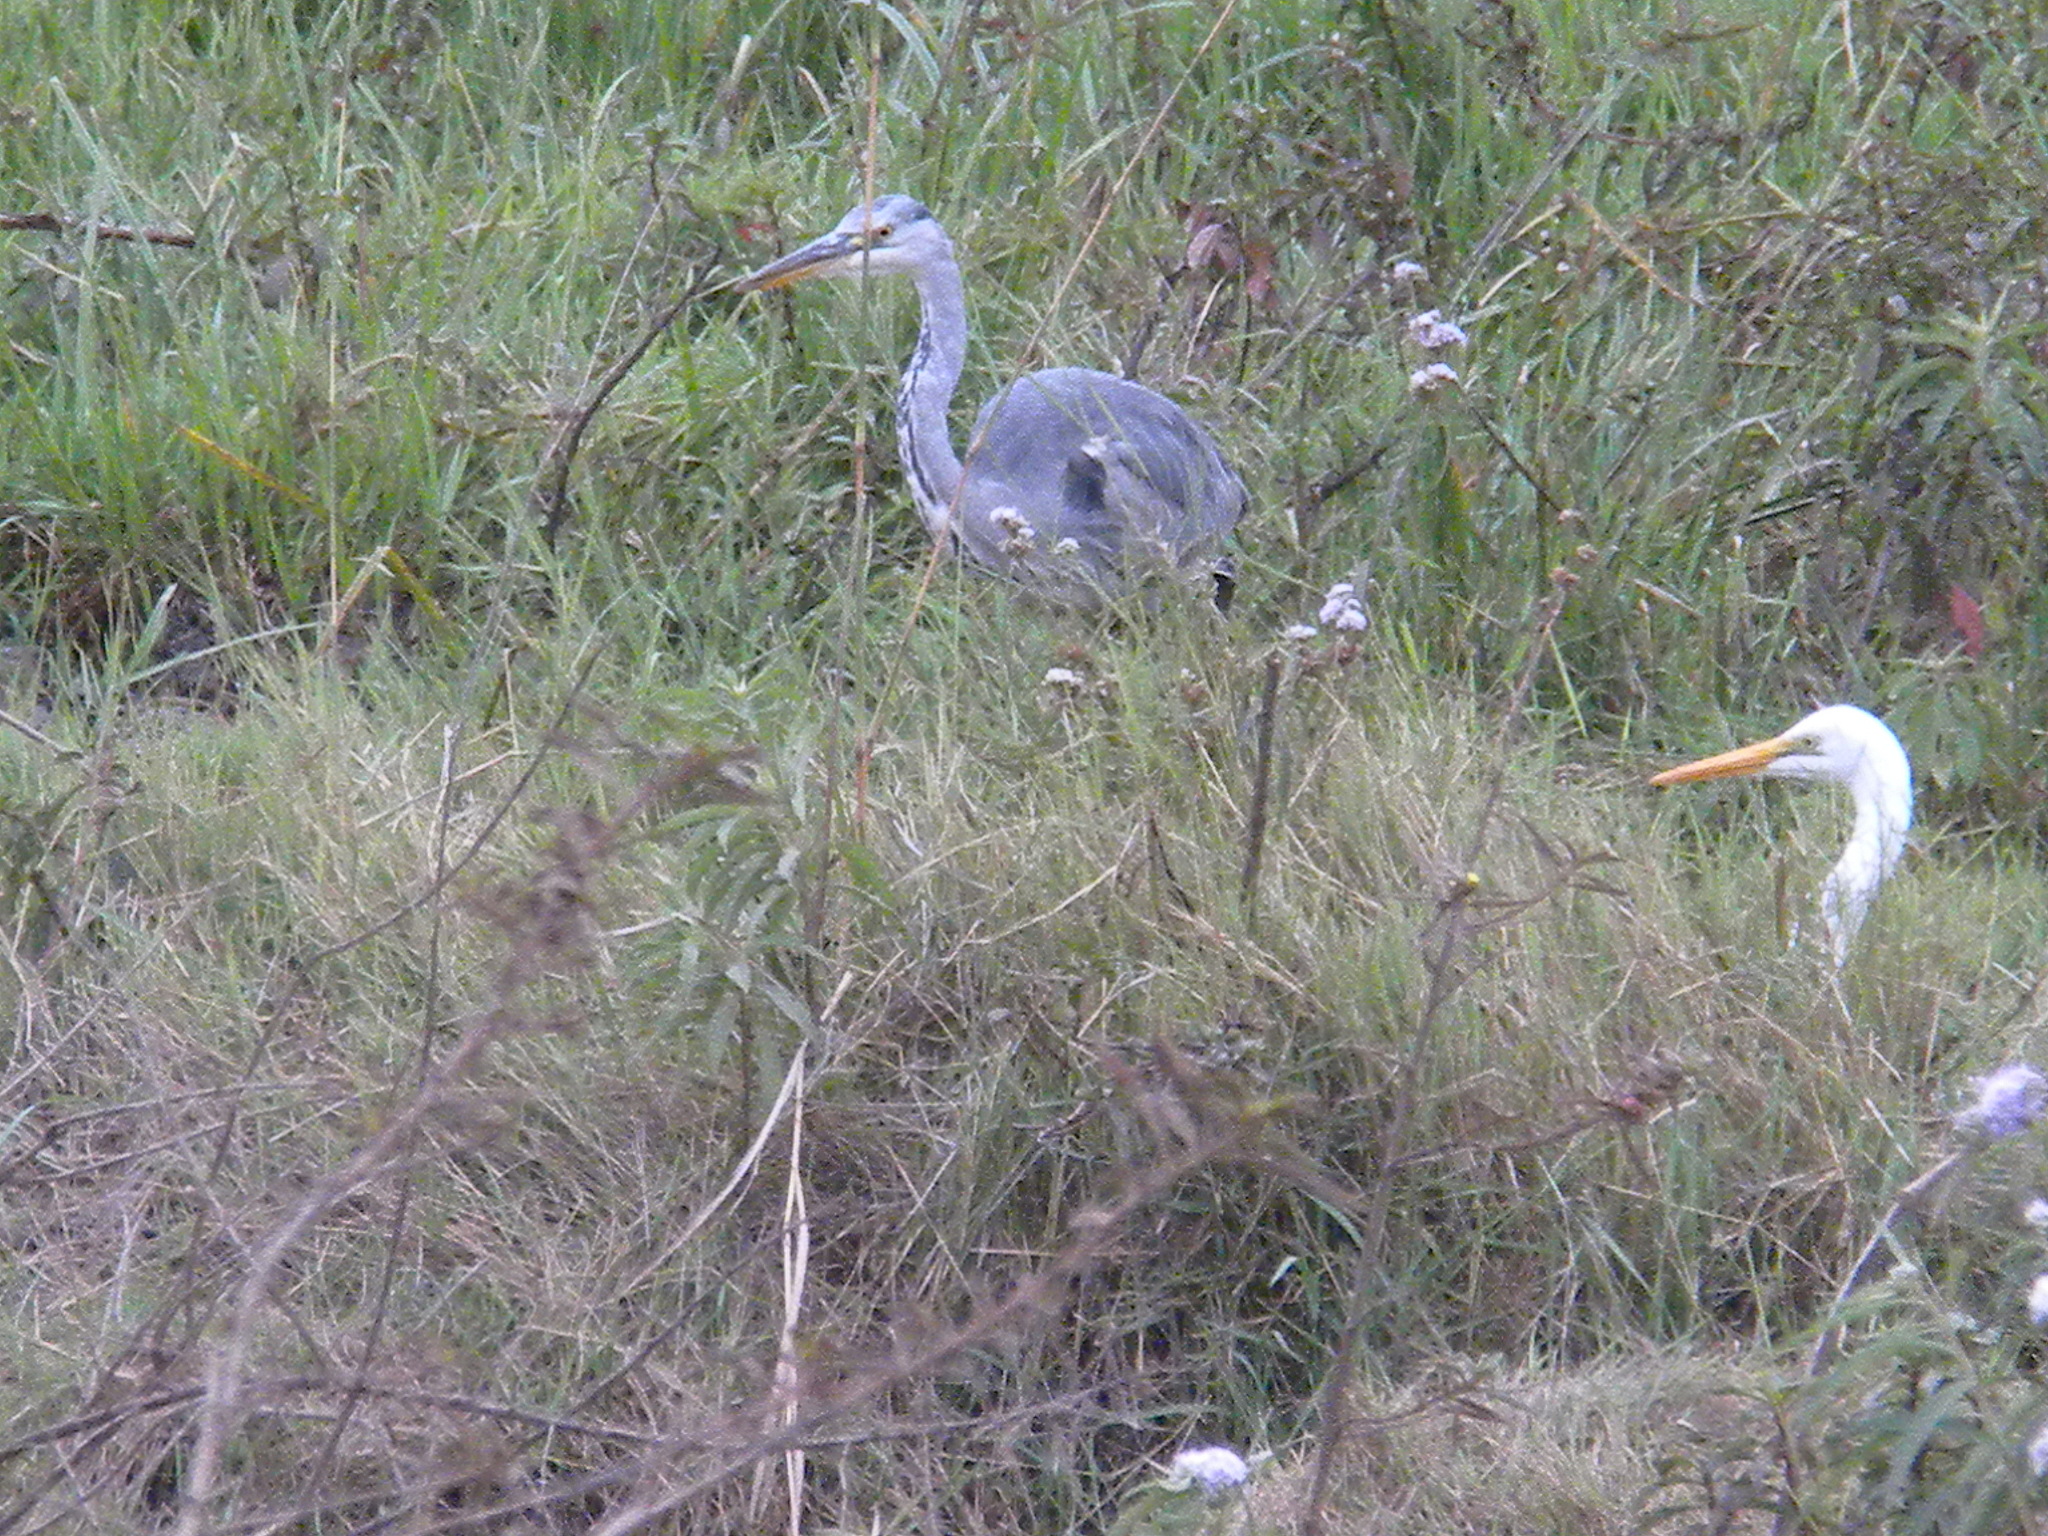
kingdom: Animalia
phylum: Chordata
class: Aves
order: Pelecaniformes
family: Ardeidae
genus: Ardea
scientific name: Ardea cinerea
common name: Grey heron
